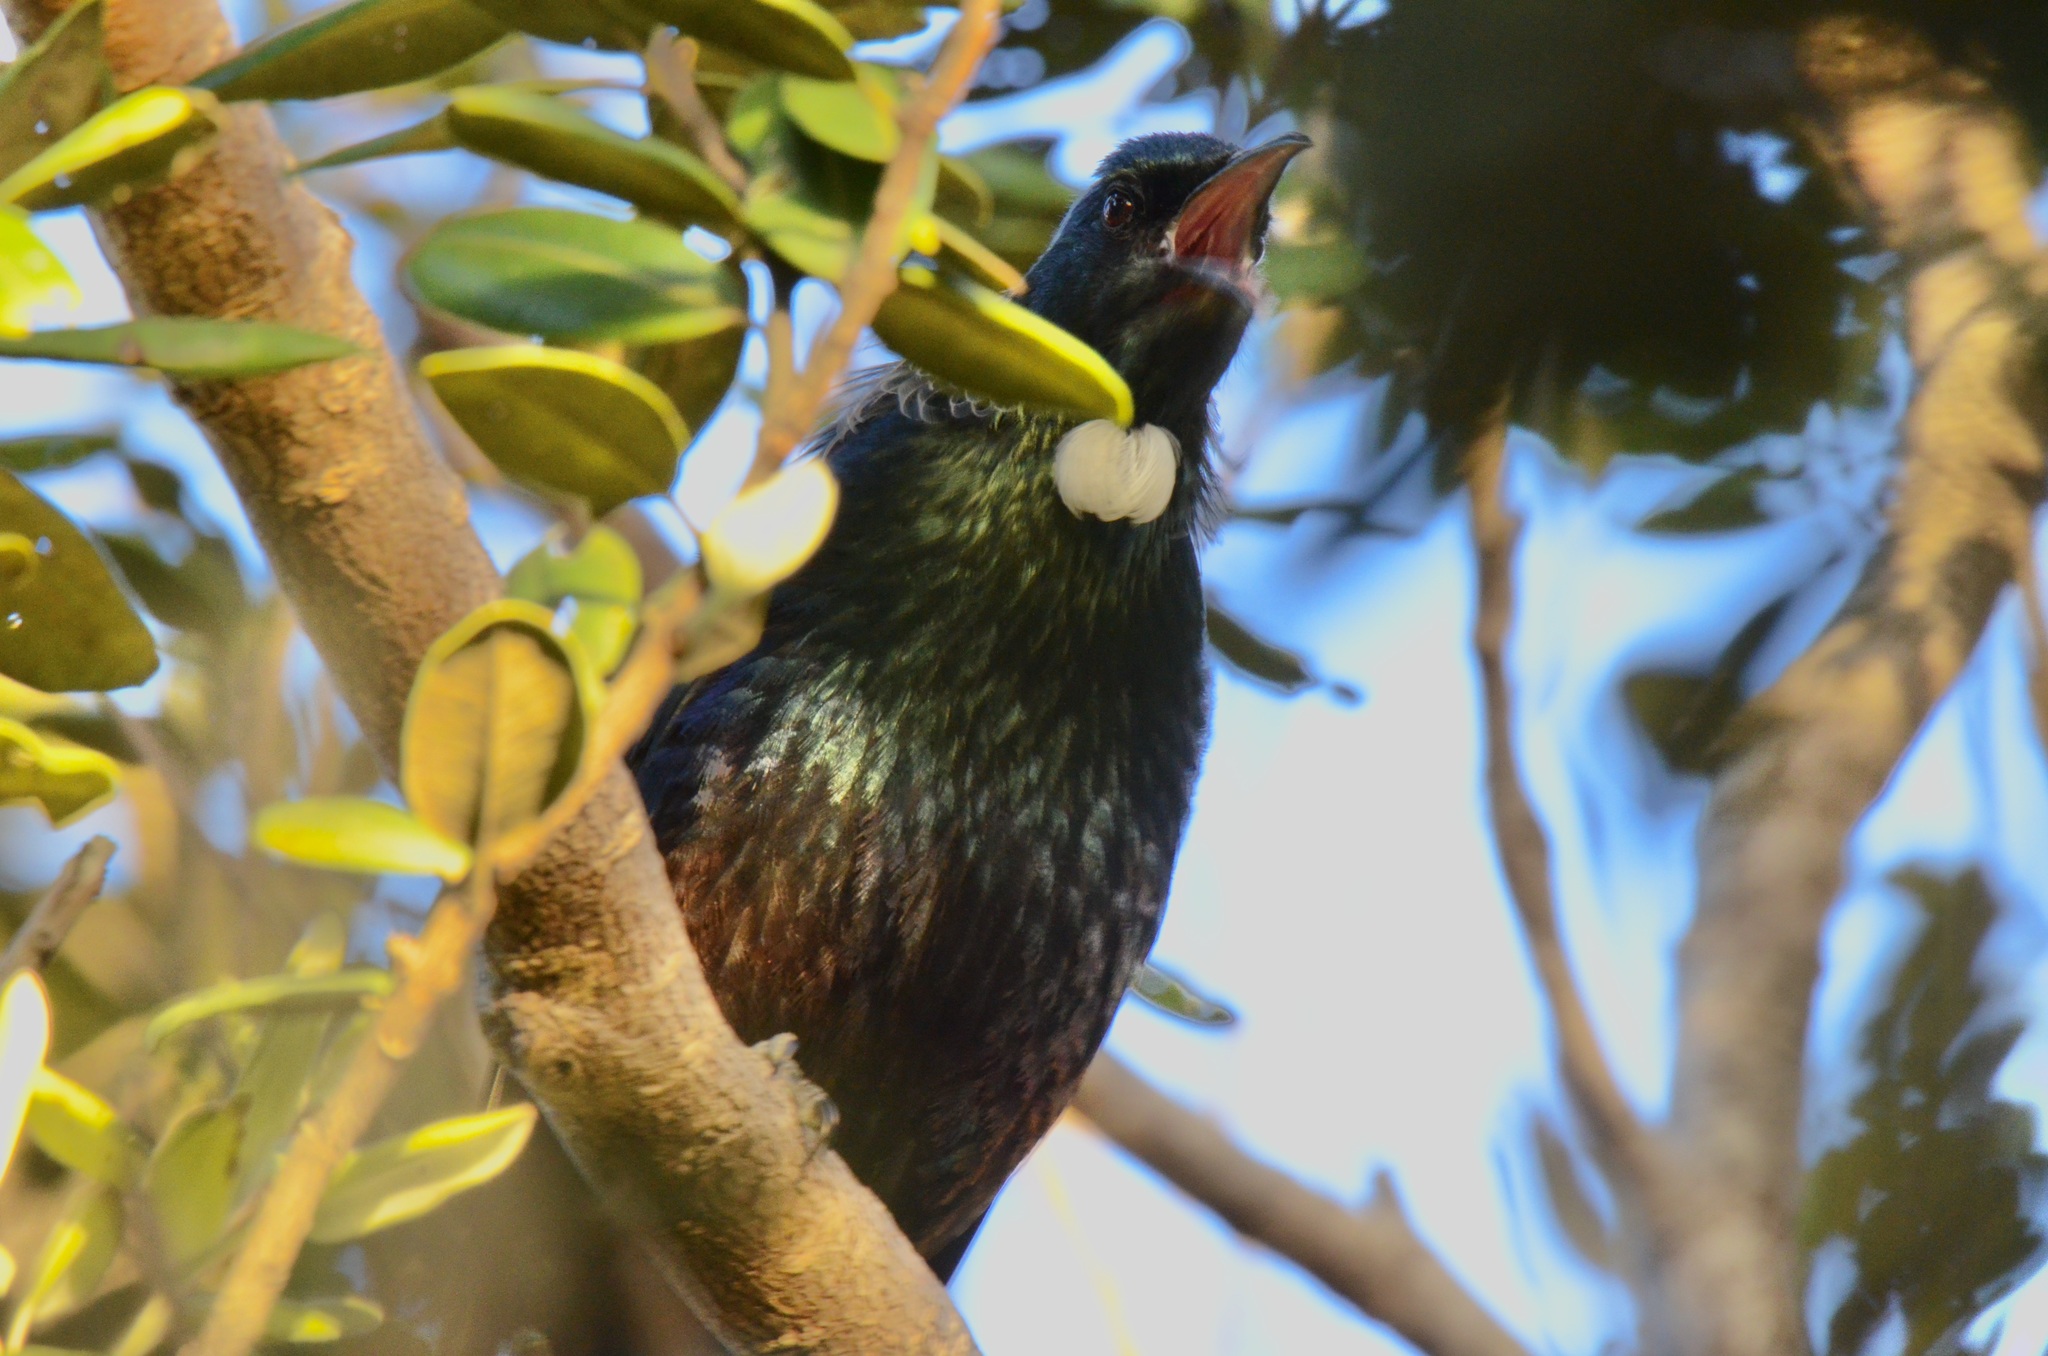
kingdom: Animalia
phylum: Chordata
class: Aves
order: Passeriformes
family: Meliphagidae
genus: Prosthemadera
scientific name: Prosthemadera novaeseelandiae
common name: Tui
